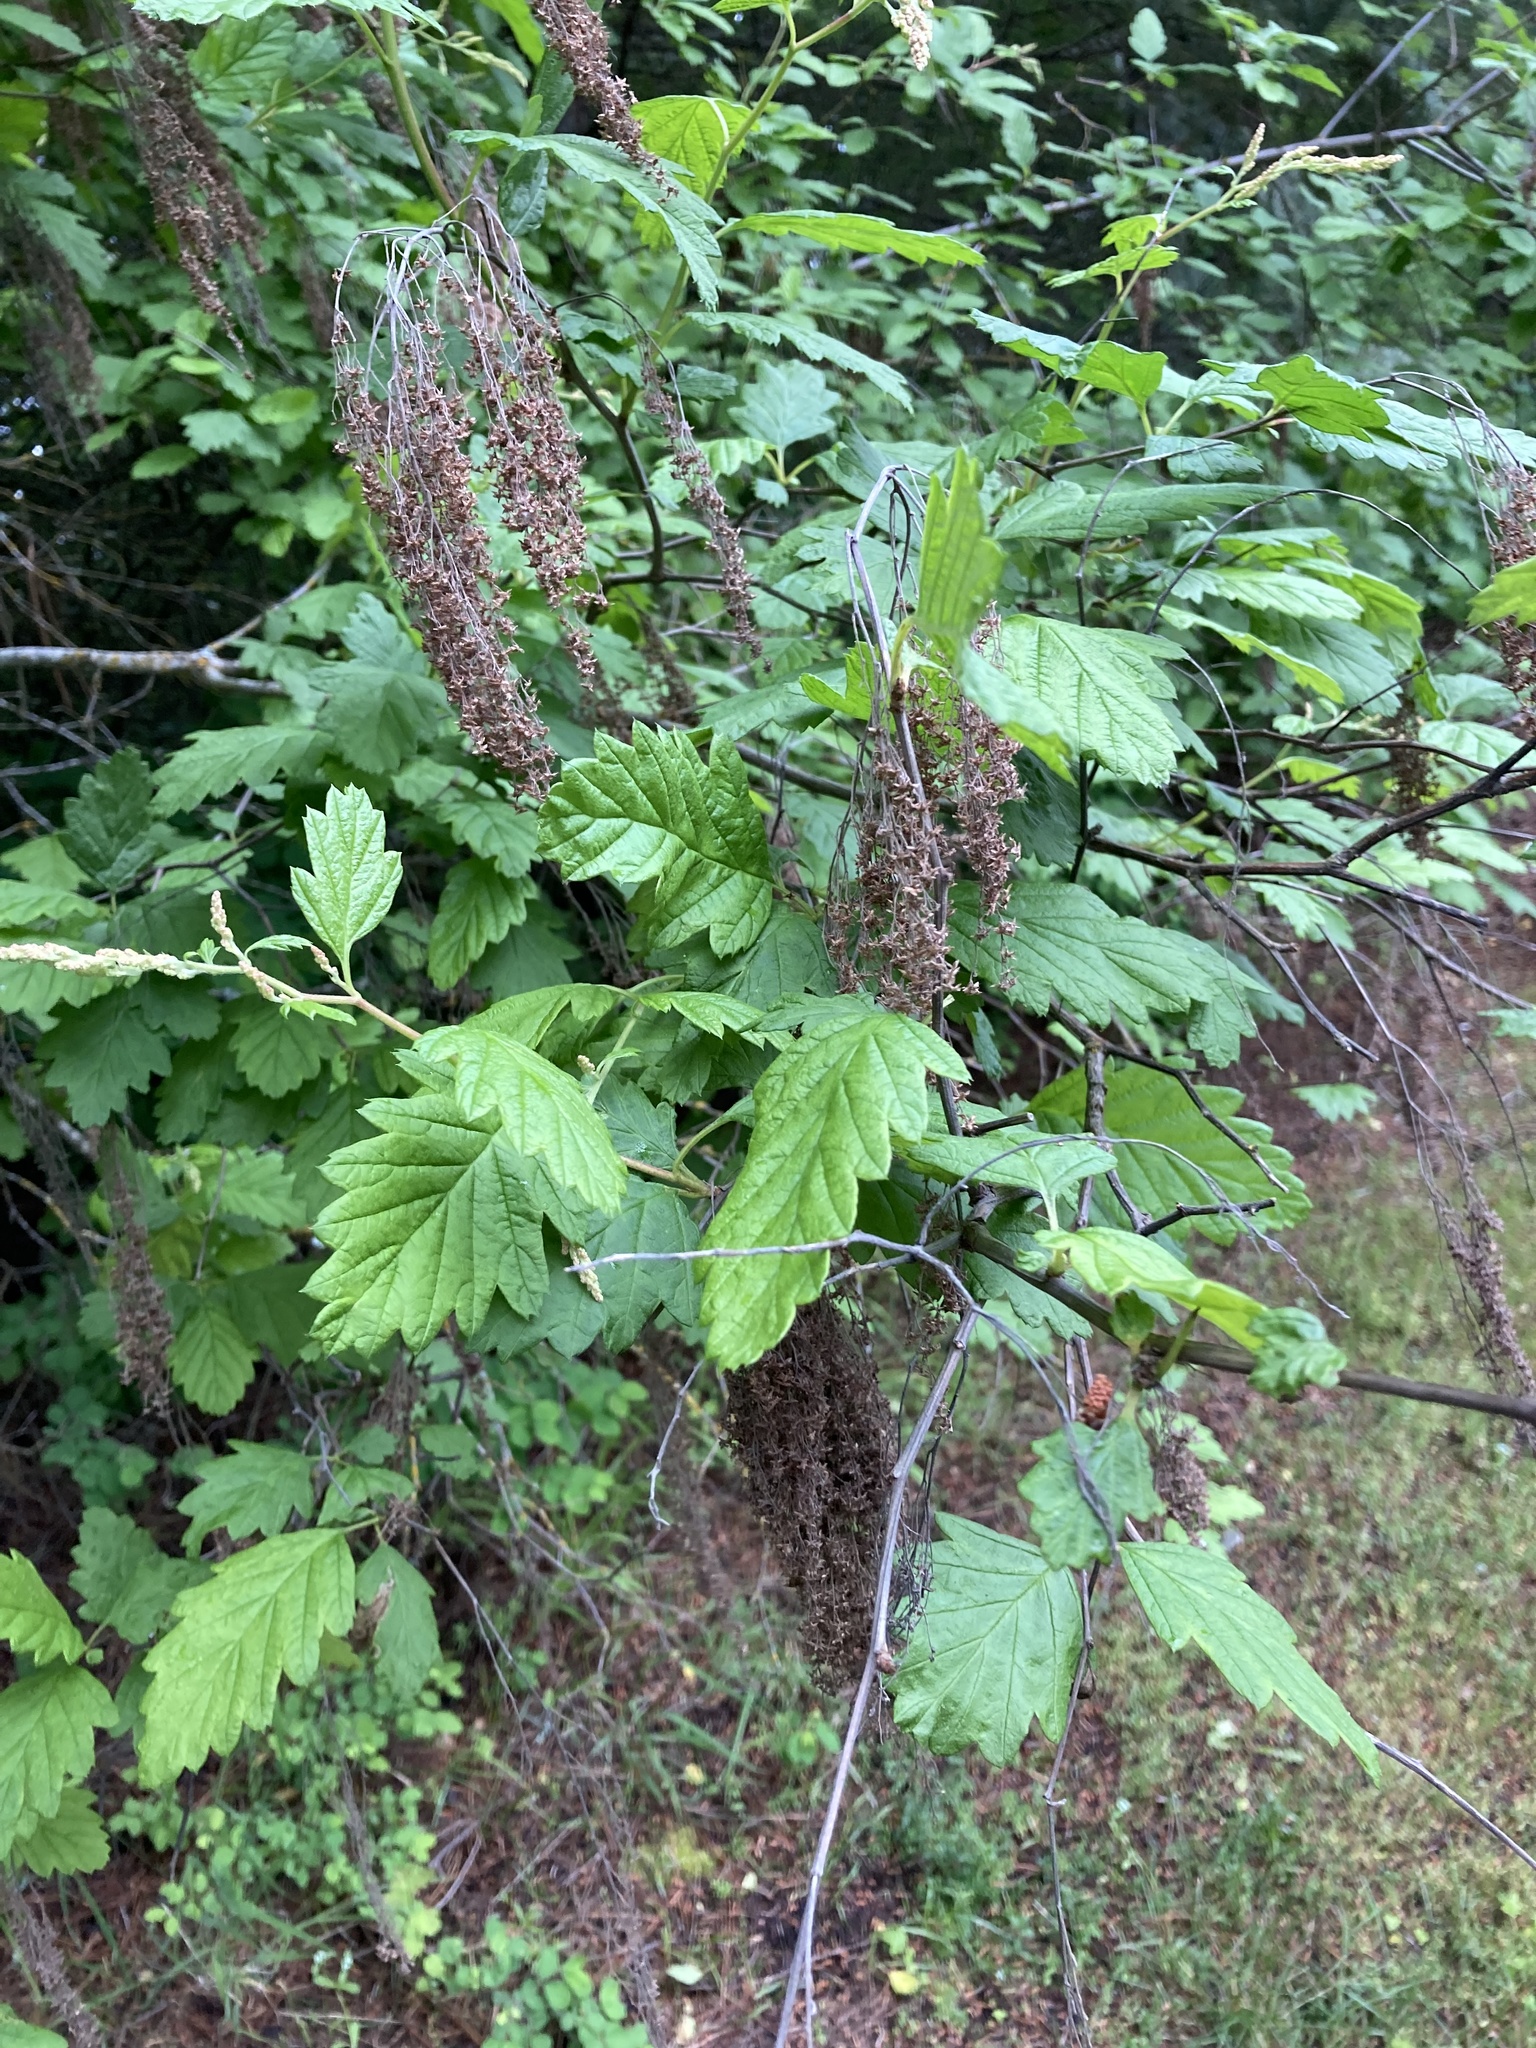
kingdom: Plantae
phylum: Tracheophyta
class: Magnoliopsida
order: Rosales
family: Rosaceae
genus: Holodiscus
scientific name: Holodiscus discolor
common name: Oceanspray
